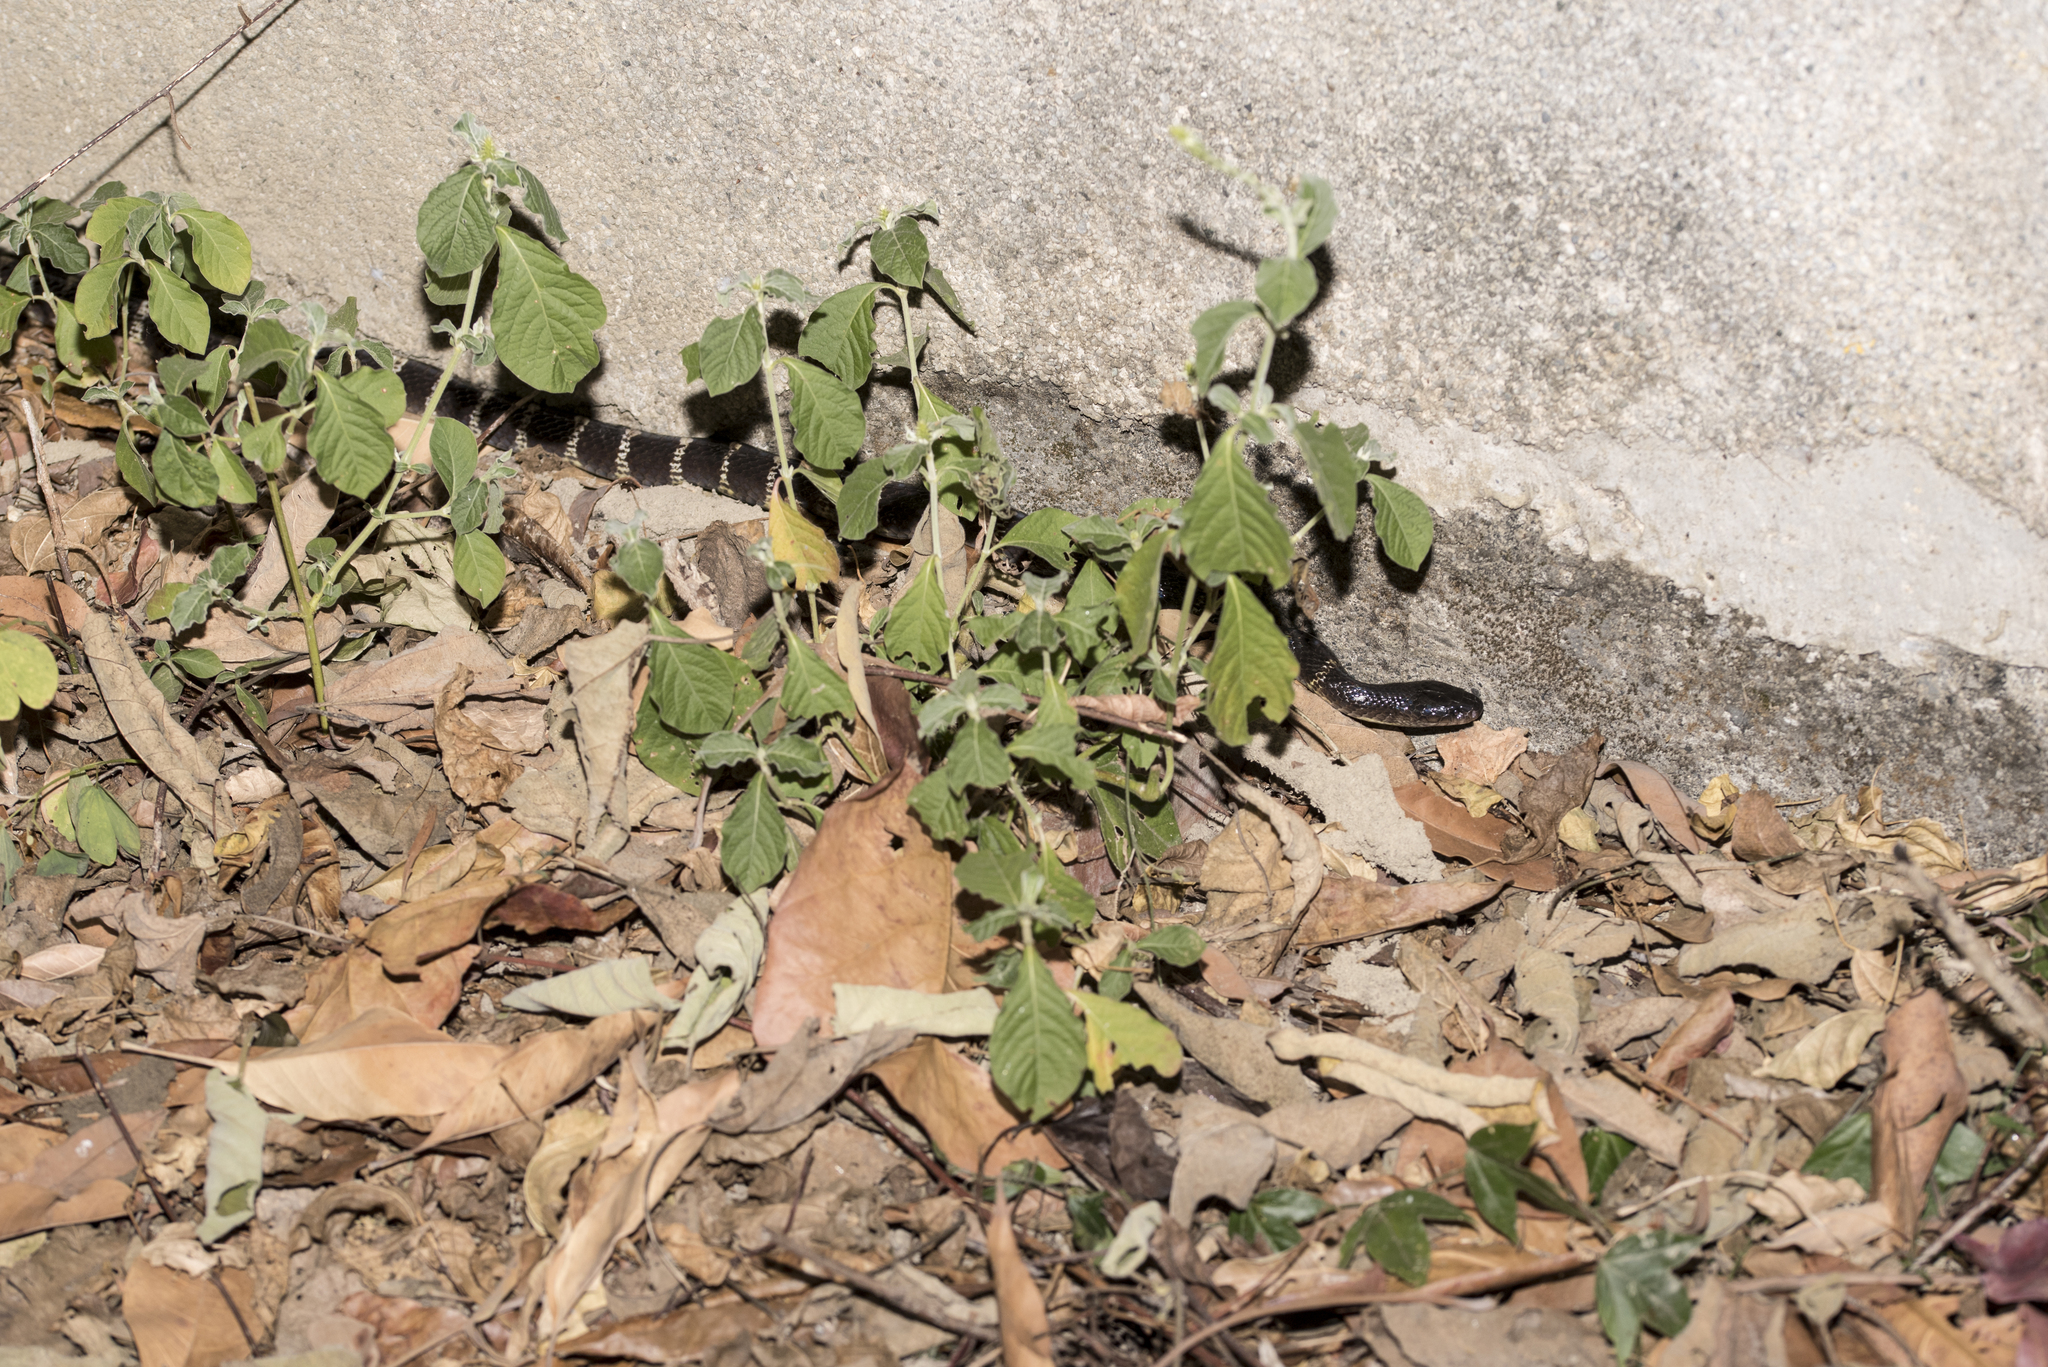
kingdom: Animalia
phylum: Chordata
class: Squamata
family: Elapidae
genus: Bungarus
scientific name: Bungarus multicinctus
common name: Many-banded krait
